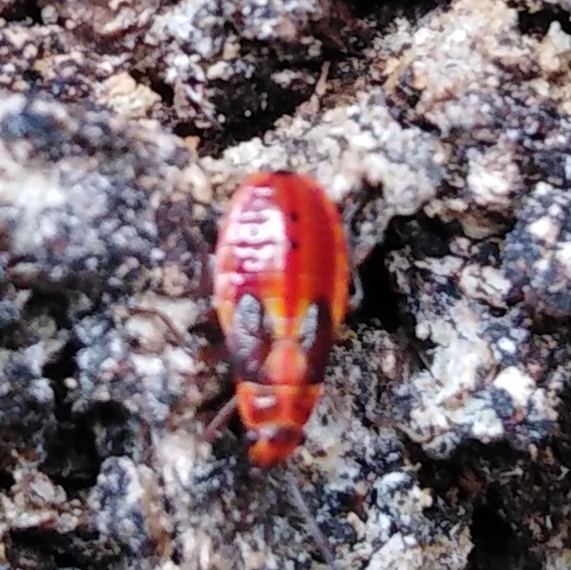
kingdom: Animalia
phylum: Arthropoda
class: Insecta
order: Hemiptera
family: Lygaeidae
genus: Lygaeus
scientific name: Lygaeus equestris
